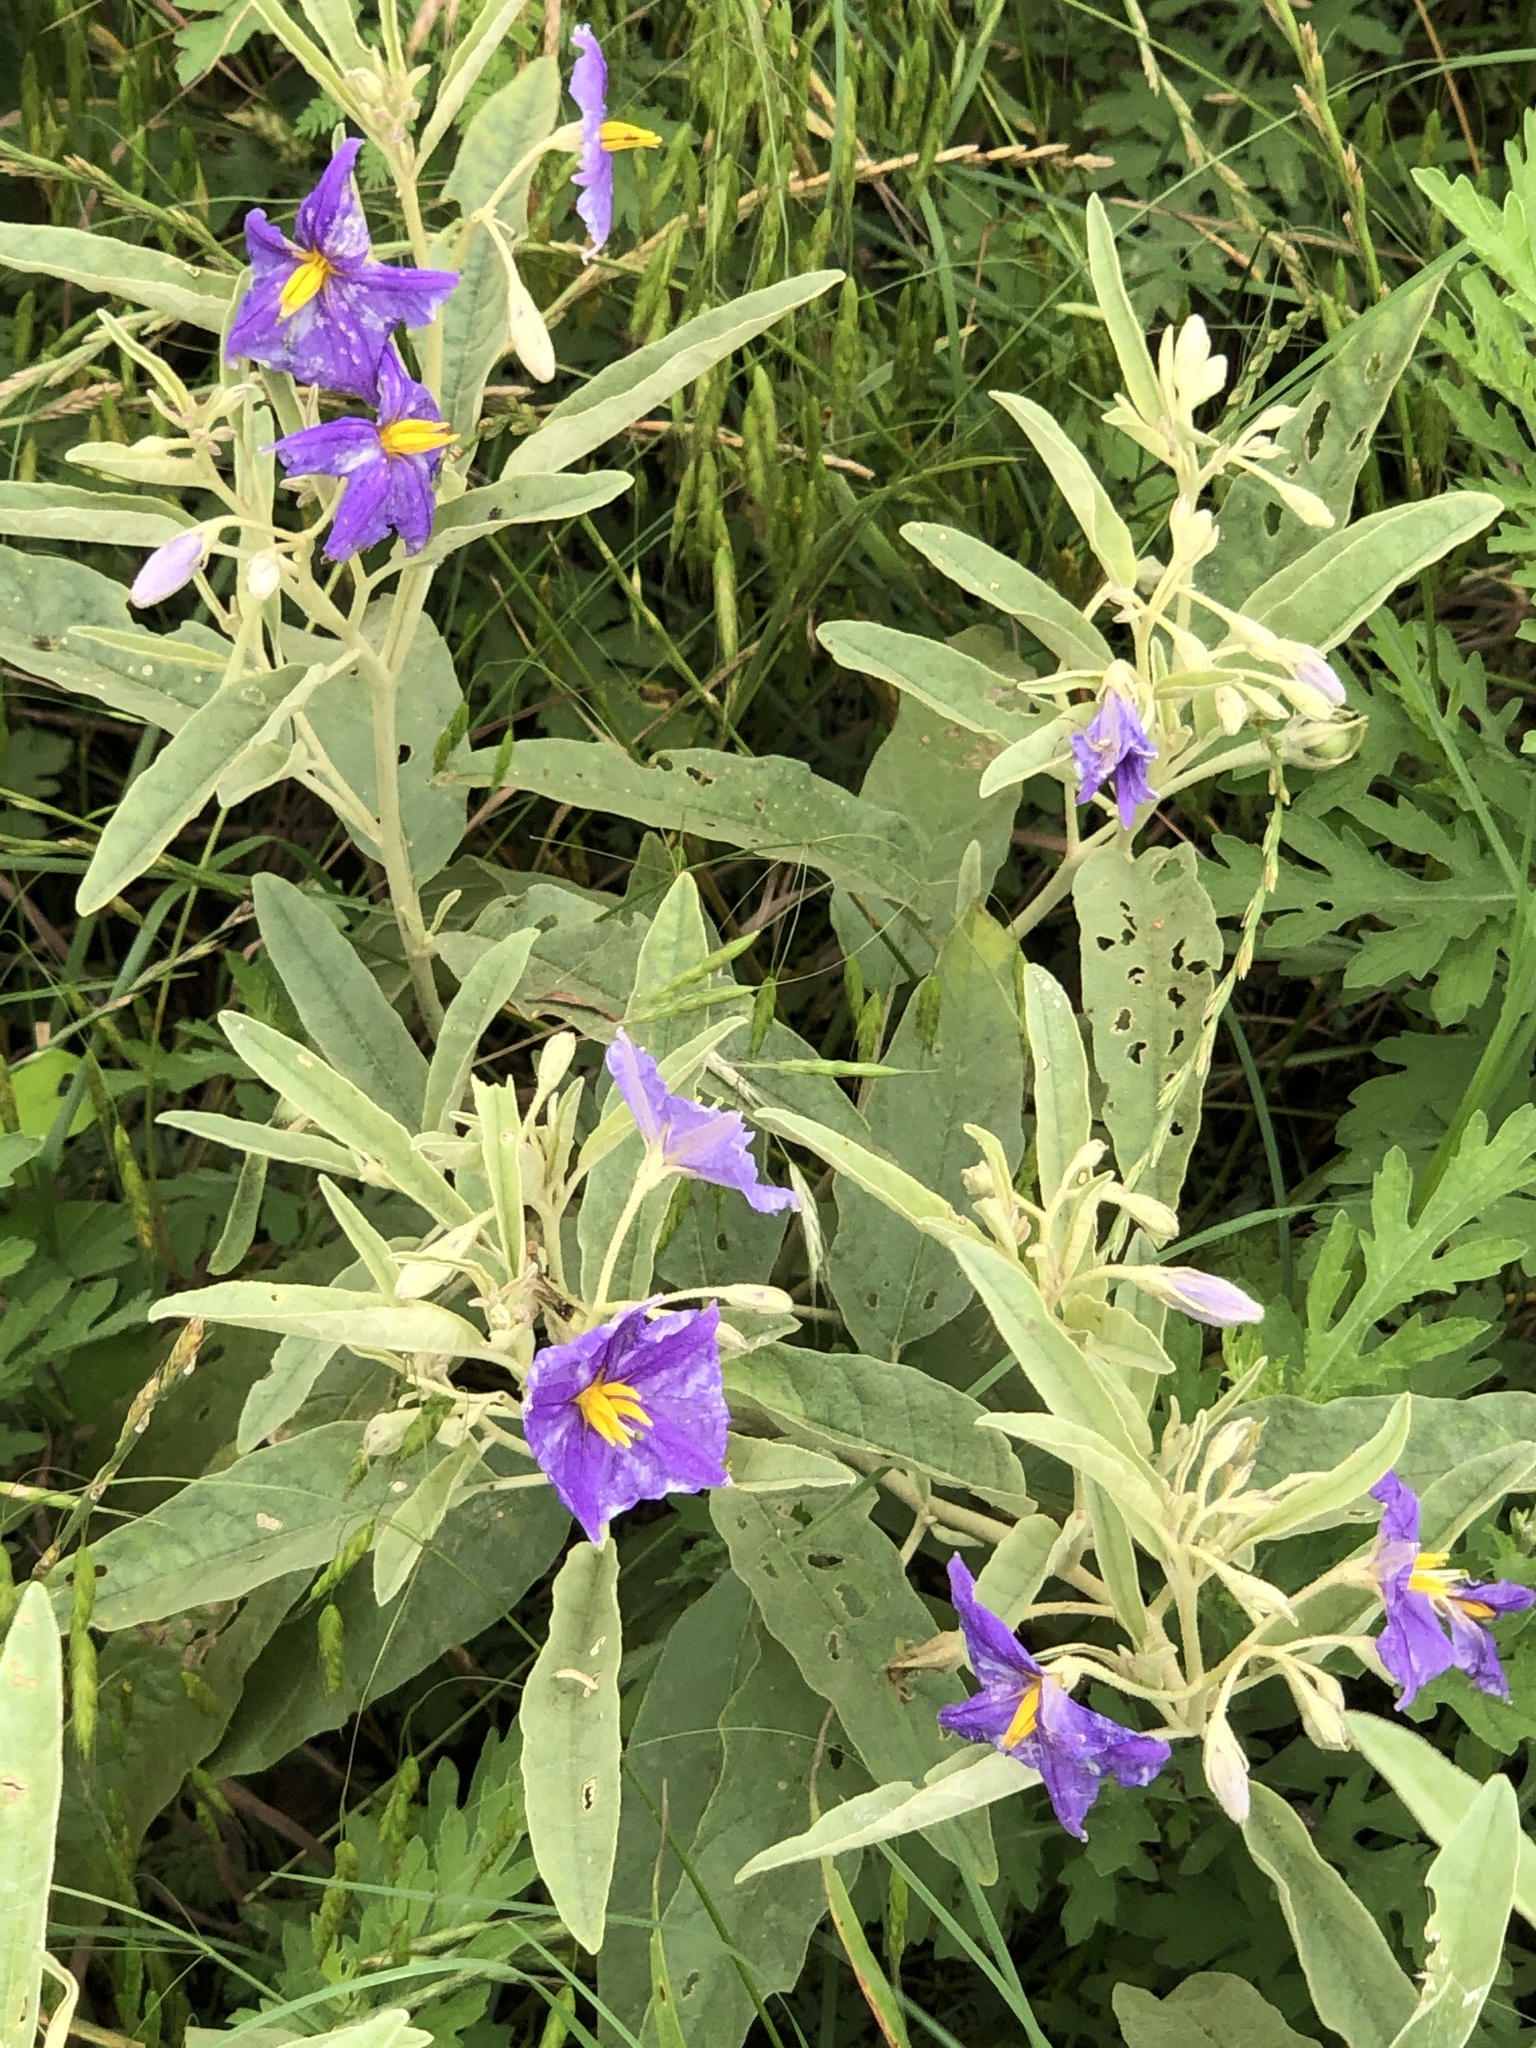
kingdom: Plantae
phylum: Tracheophyta
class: Magnoliopsida
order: Solanales
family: Solanaceae
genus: Solanum
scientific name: Solanum elaeagnifolium
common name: Silverleaf nightshade
